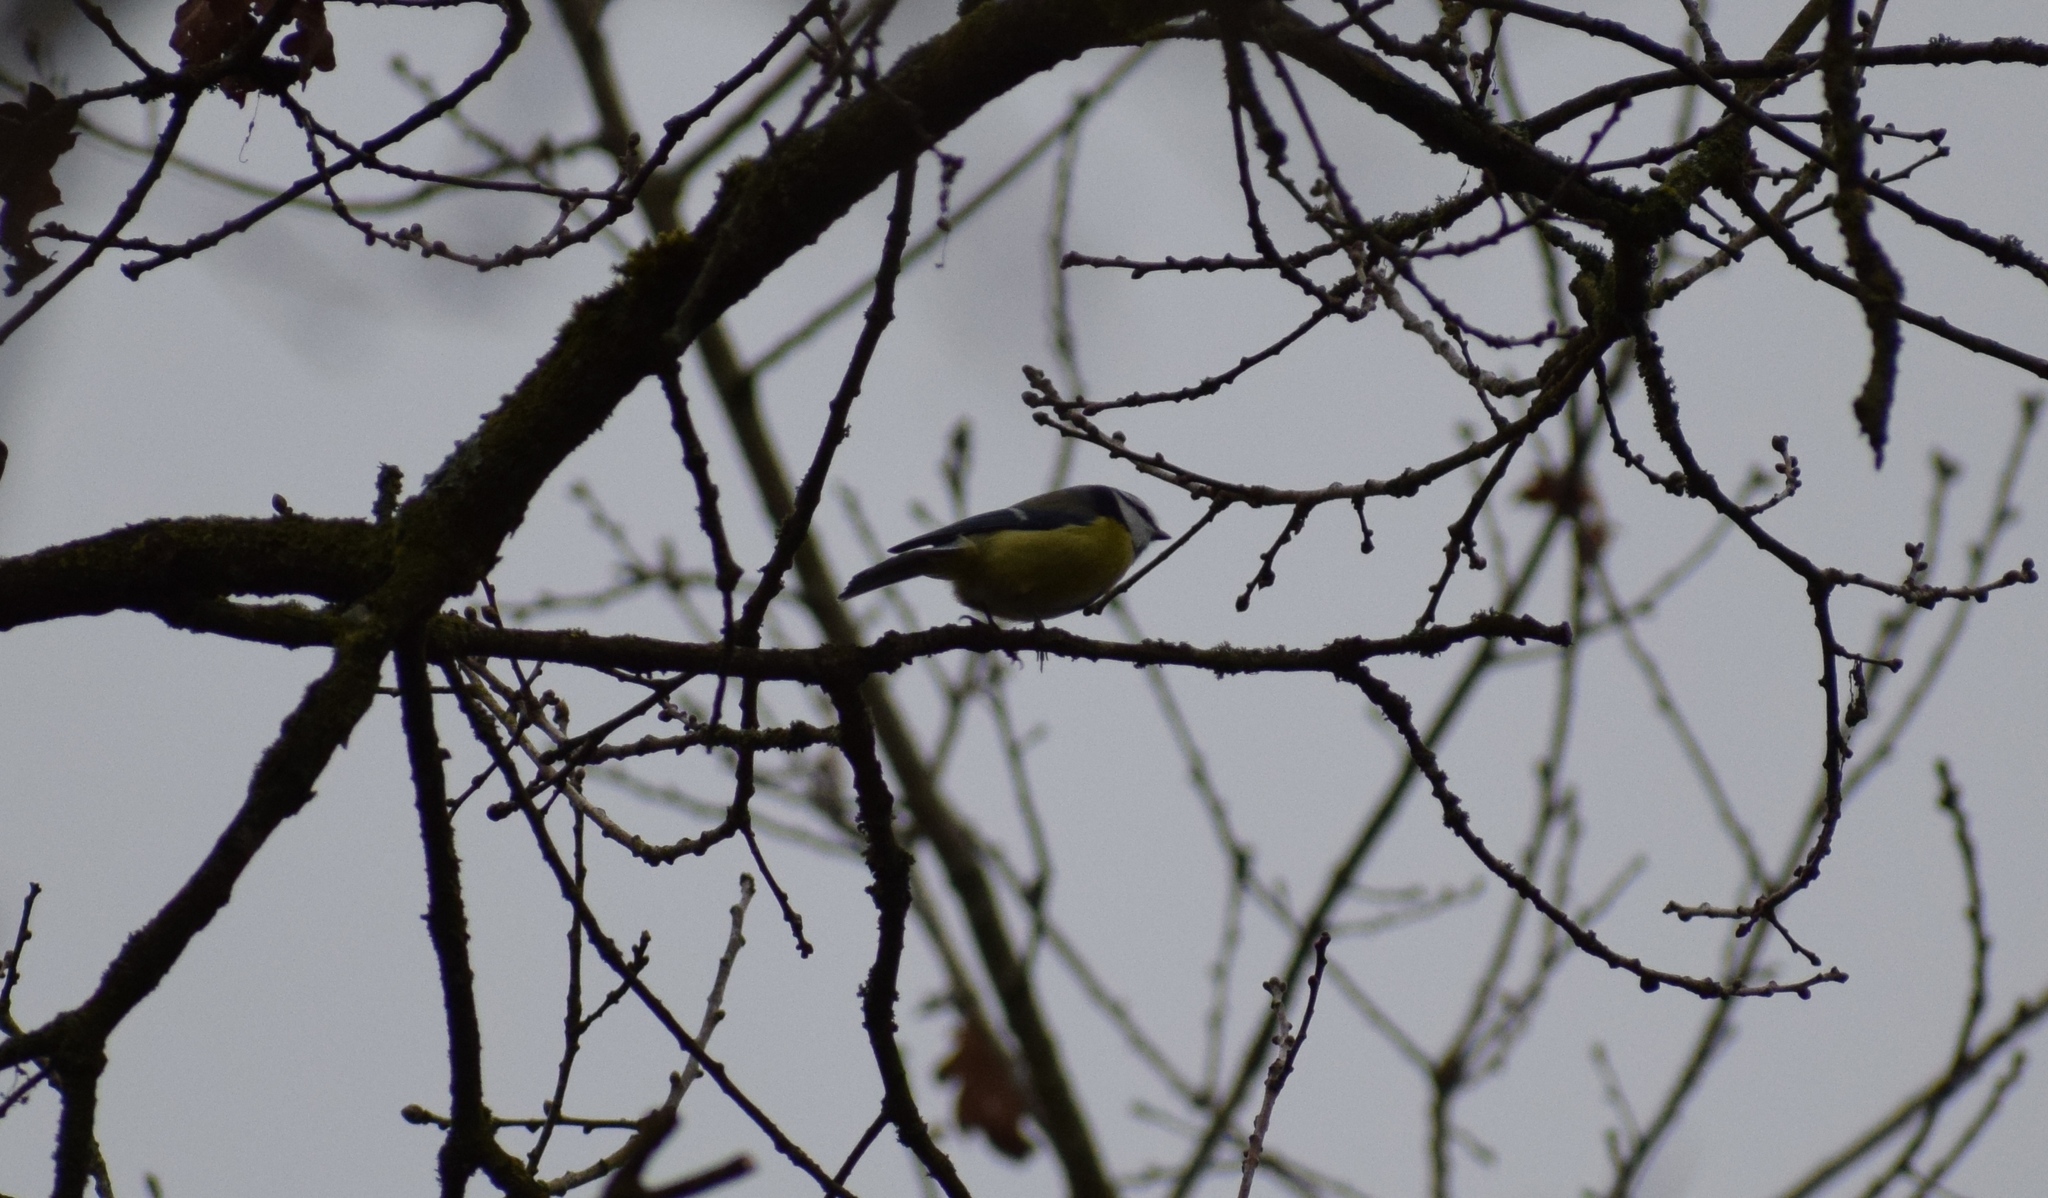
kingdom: Animalia
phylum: Chordata
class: Aves
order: Passeriformes
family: Paridae
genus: Cyanistes
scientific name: Cyanistes caeruleus
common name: Eurasian blue tit
